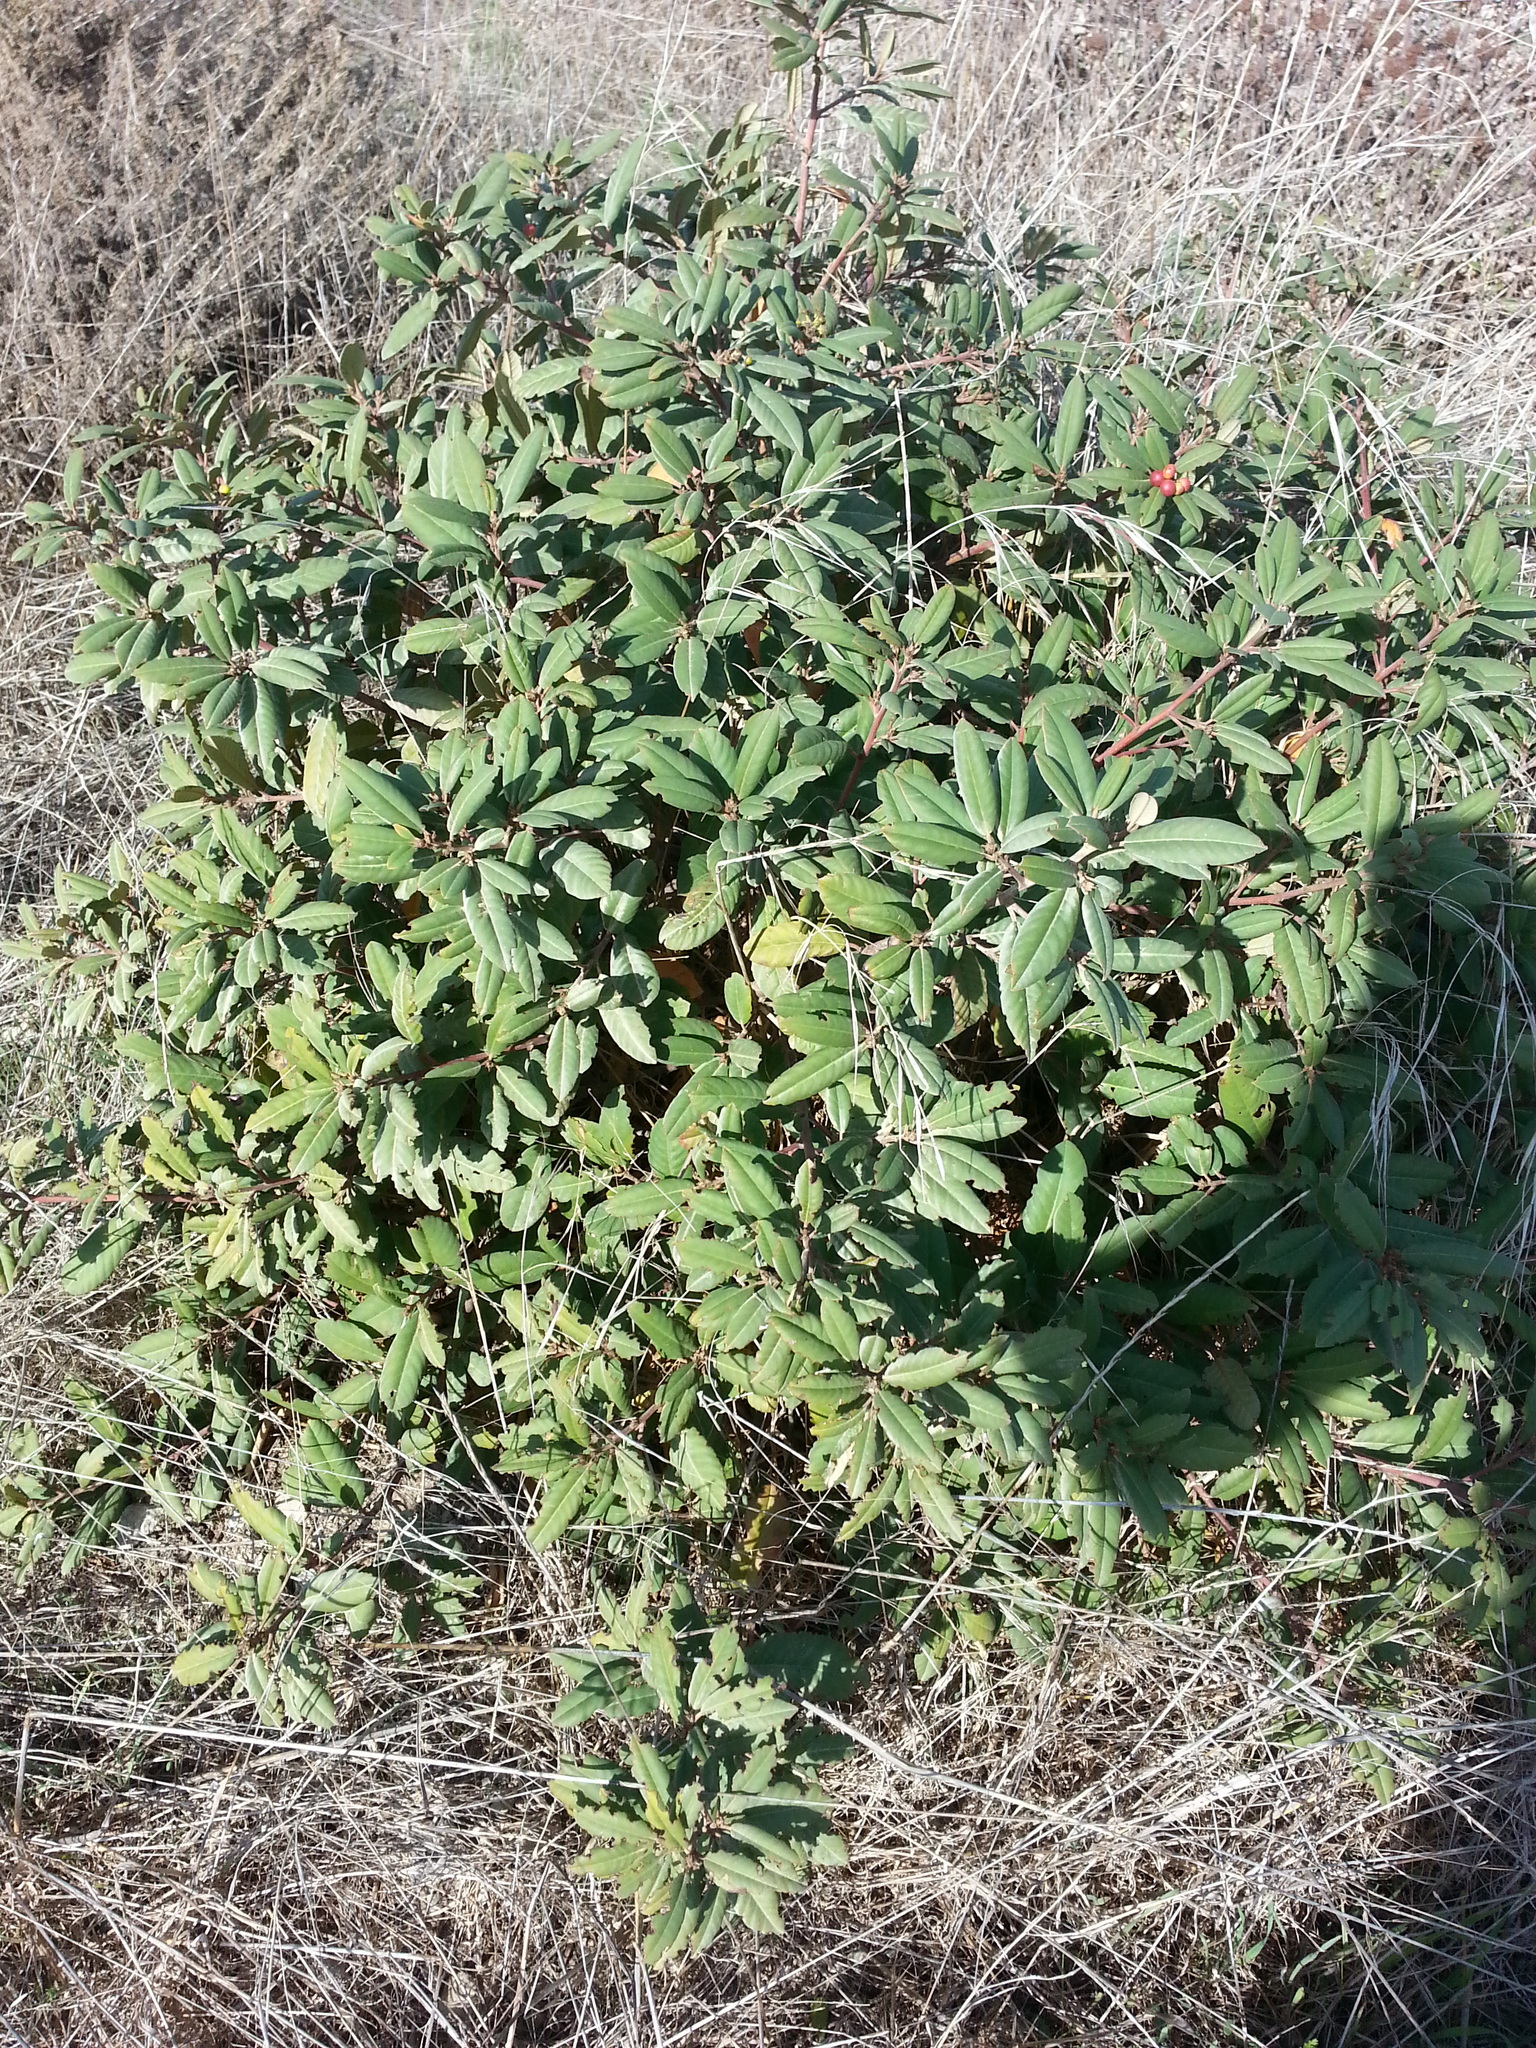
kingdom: Plantae
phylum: Tracheophyta
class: Magnoliopsida
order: Rosales
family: Rhamnaceae
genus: Frangula
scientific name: Frangula californica
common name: California buckthorn
